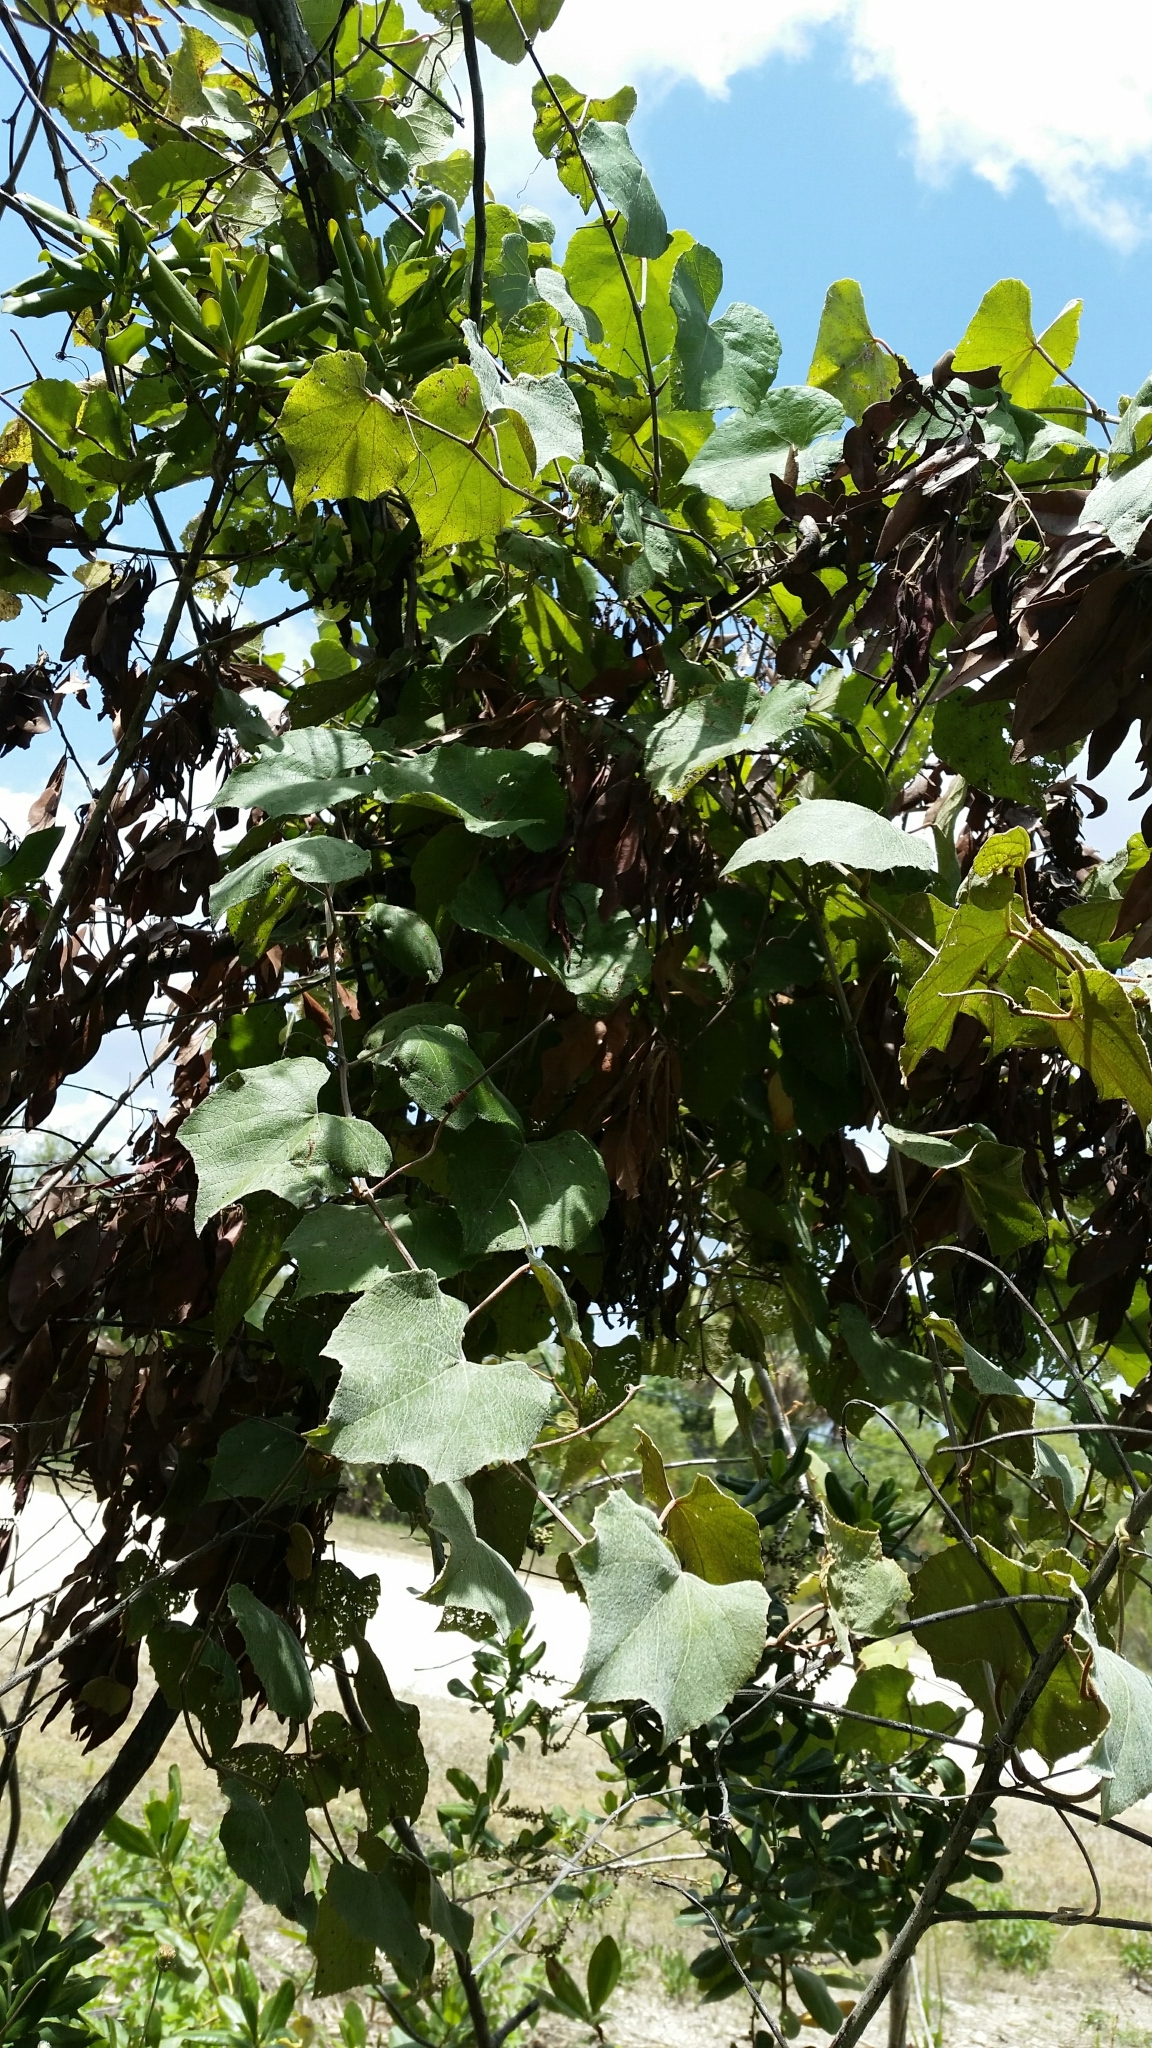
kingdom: Plantae
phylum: Tracheophyta
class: Magnoliopsida
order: Vitales
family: Vitaceae
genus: Vitis
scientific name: Vitis cinerea
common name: Ashy grape
